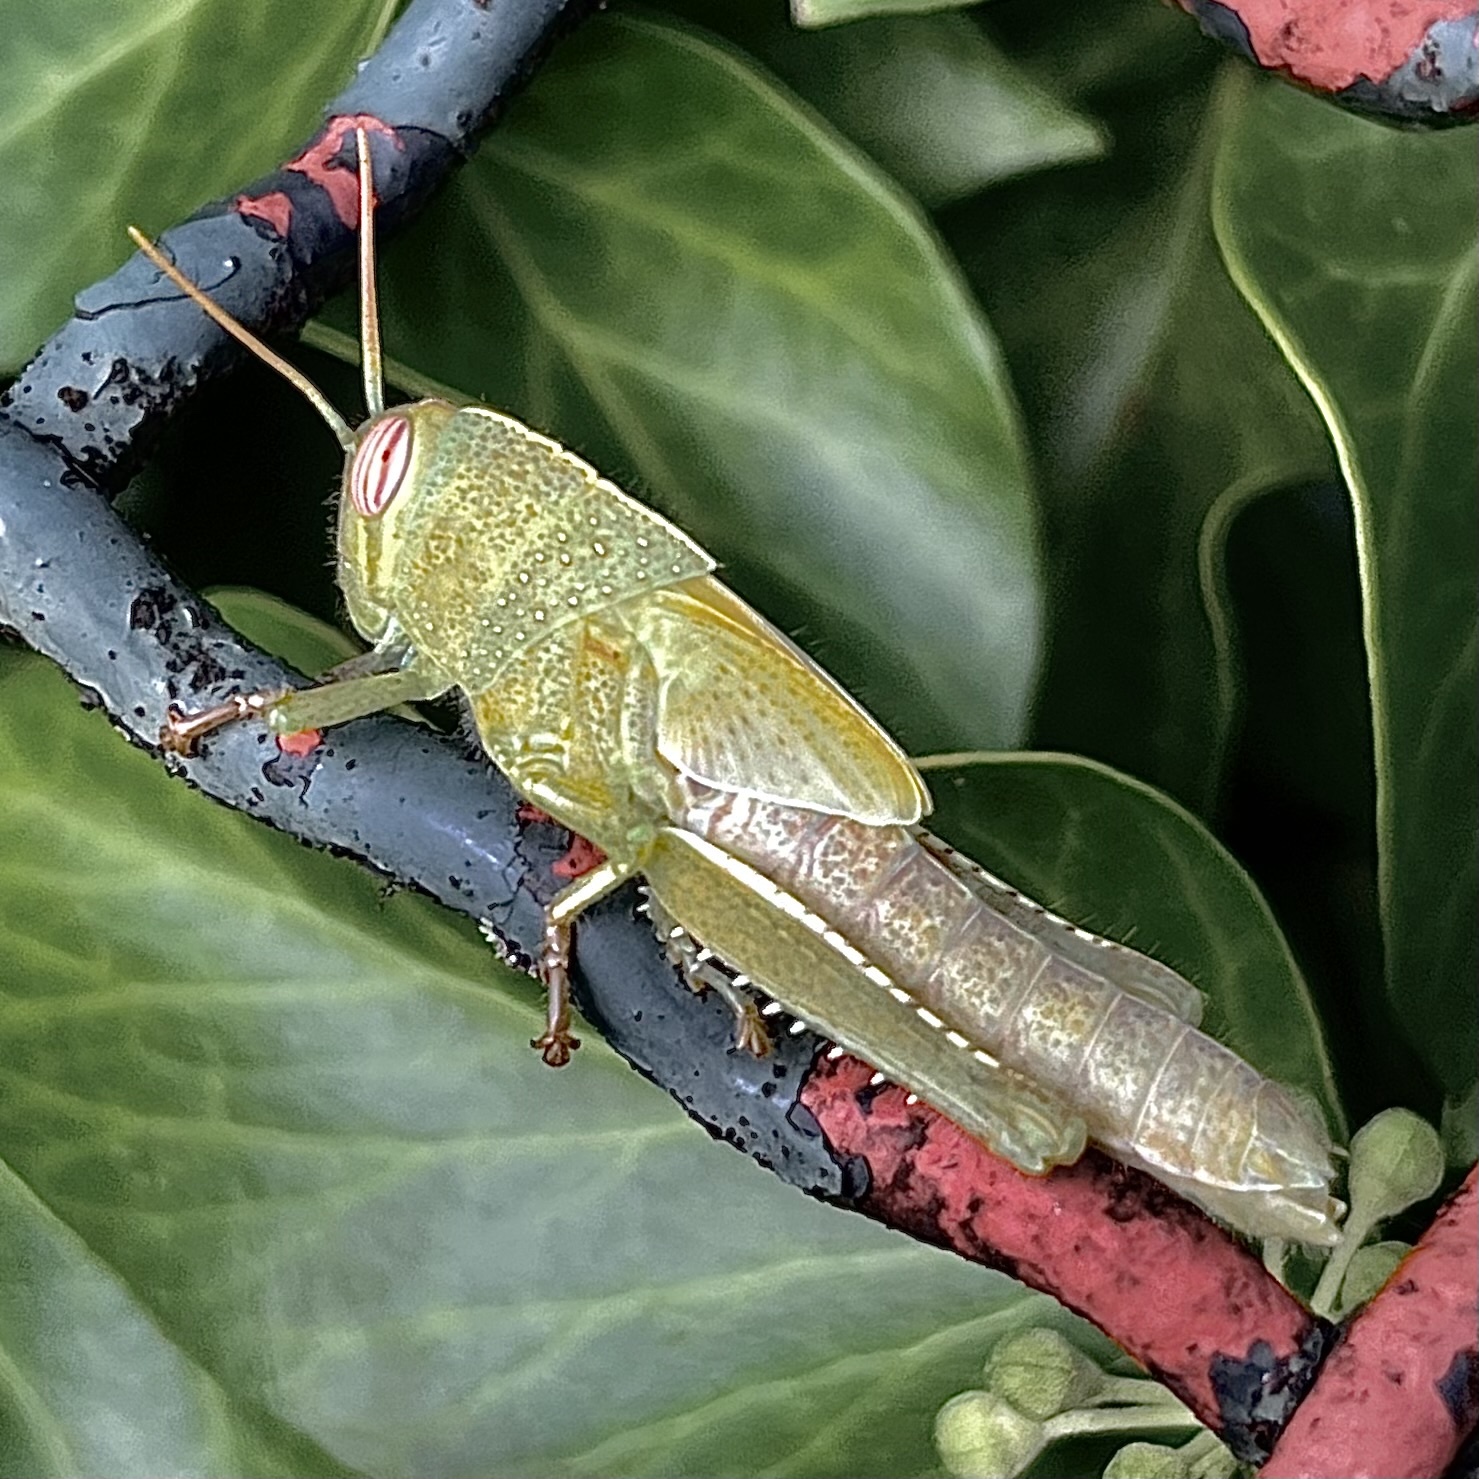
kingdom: Animalia
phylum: Arthropoda
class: Insecta
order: Orthoptera
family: Acrididae
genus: Anacridium
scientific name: Anacridium aegyptium
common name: Egyptian grasshopper
